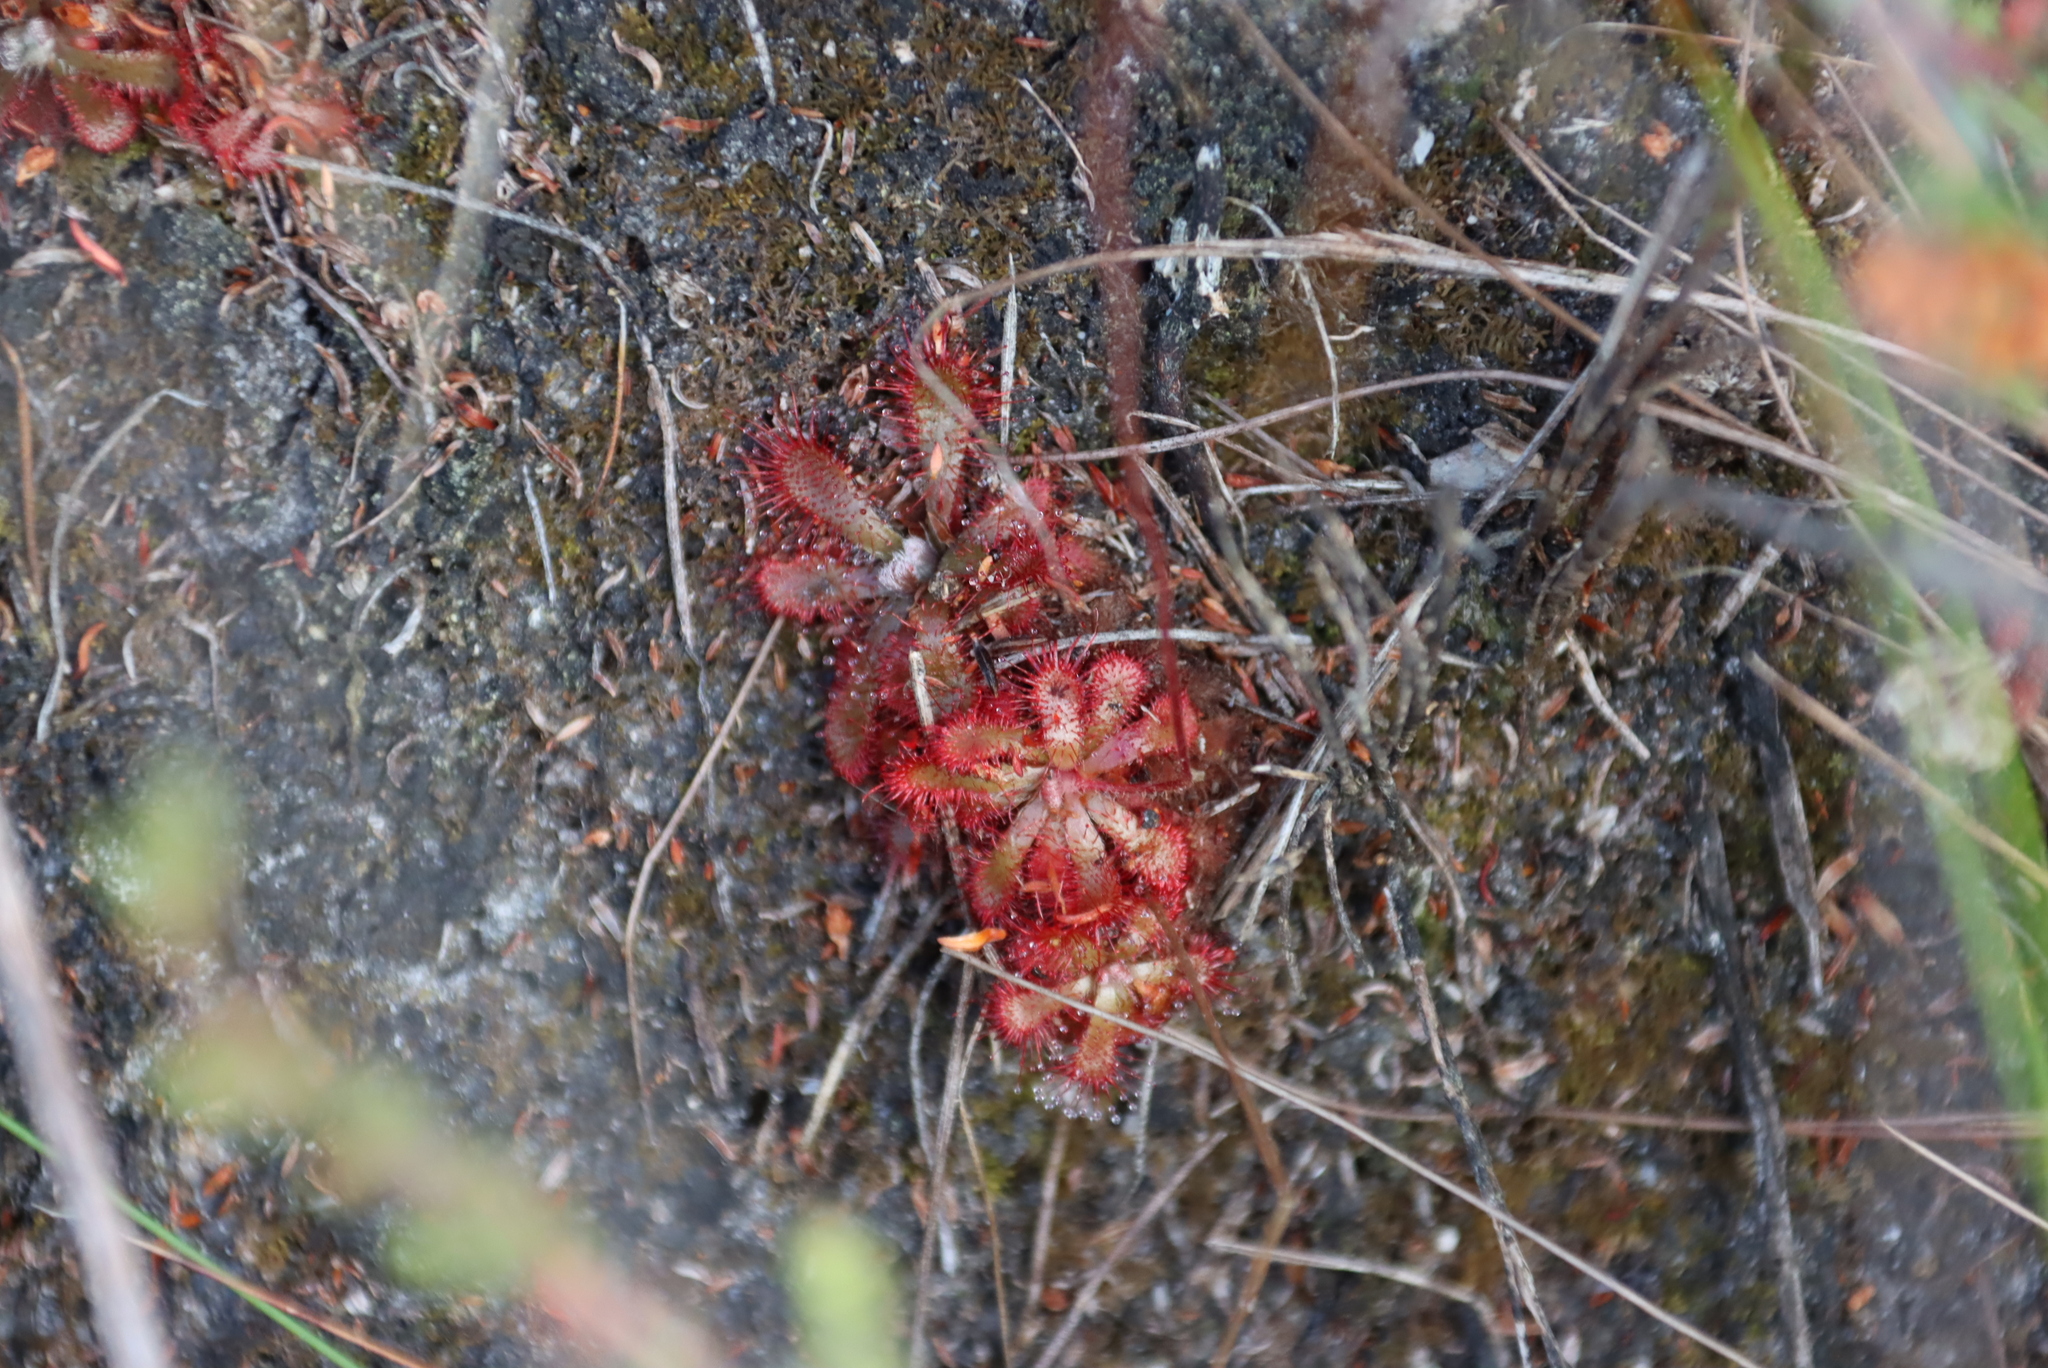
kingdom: Plantae
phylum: Tracheophyta
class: Magnoliopsida
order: Caryophyllales
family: Droseraceae
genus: Drosera
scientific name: Drosera aliciae
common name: Alice sundew
